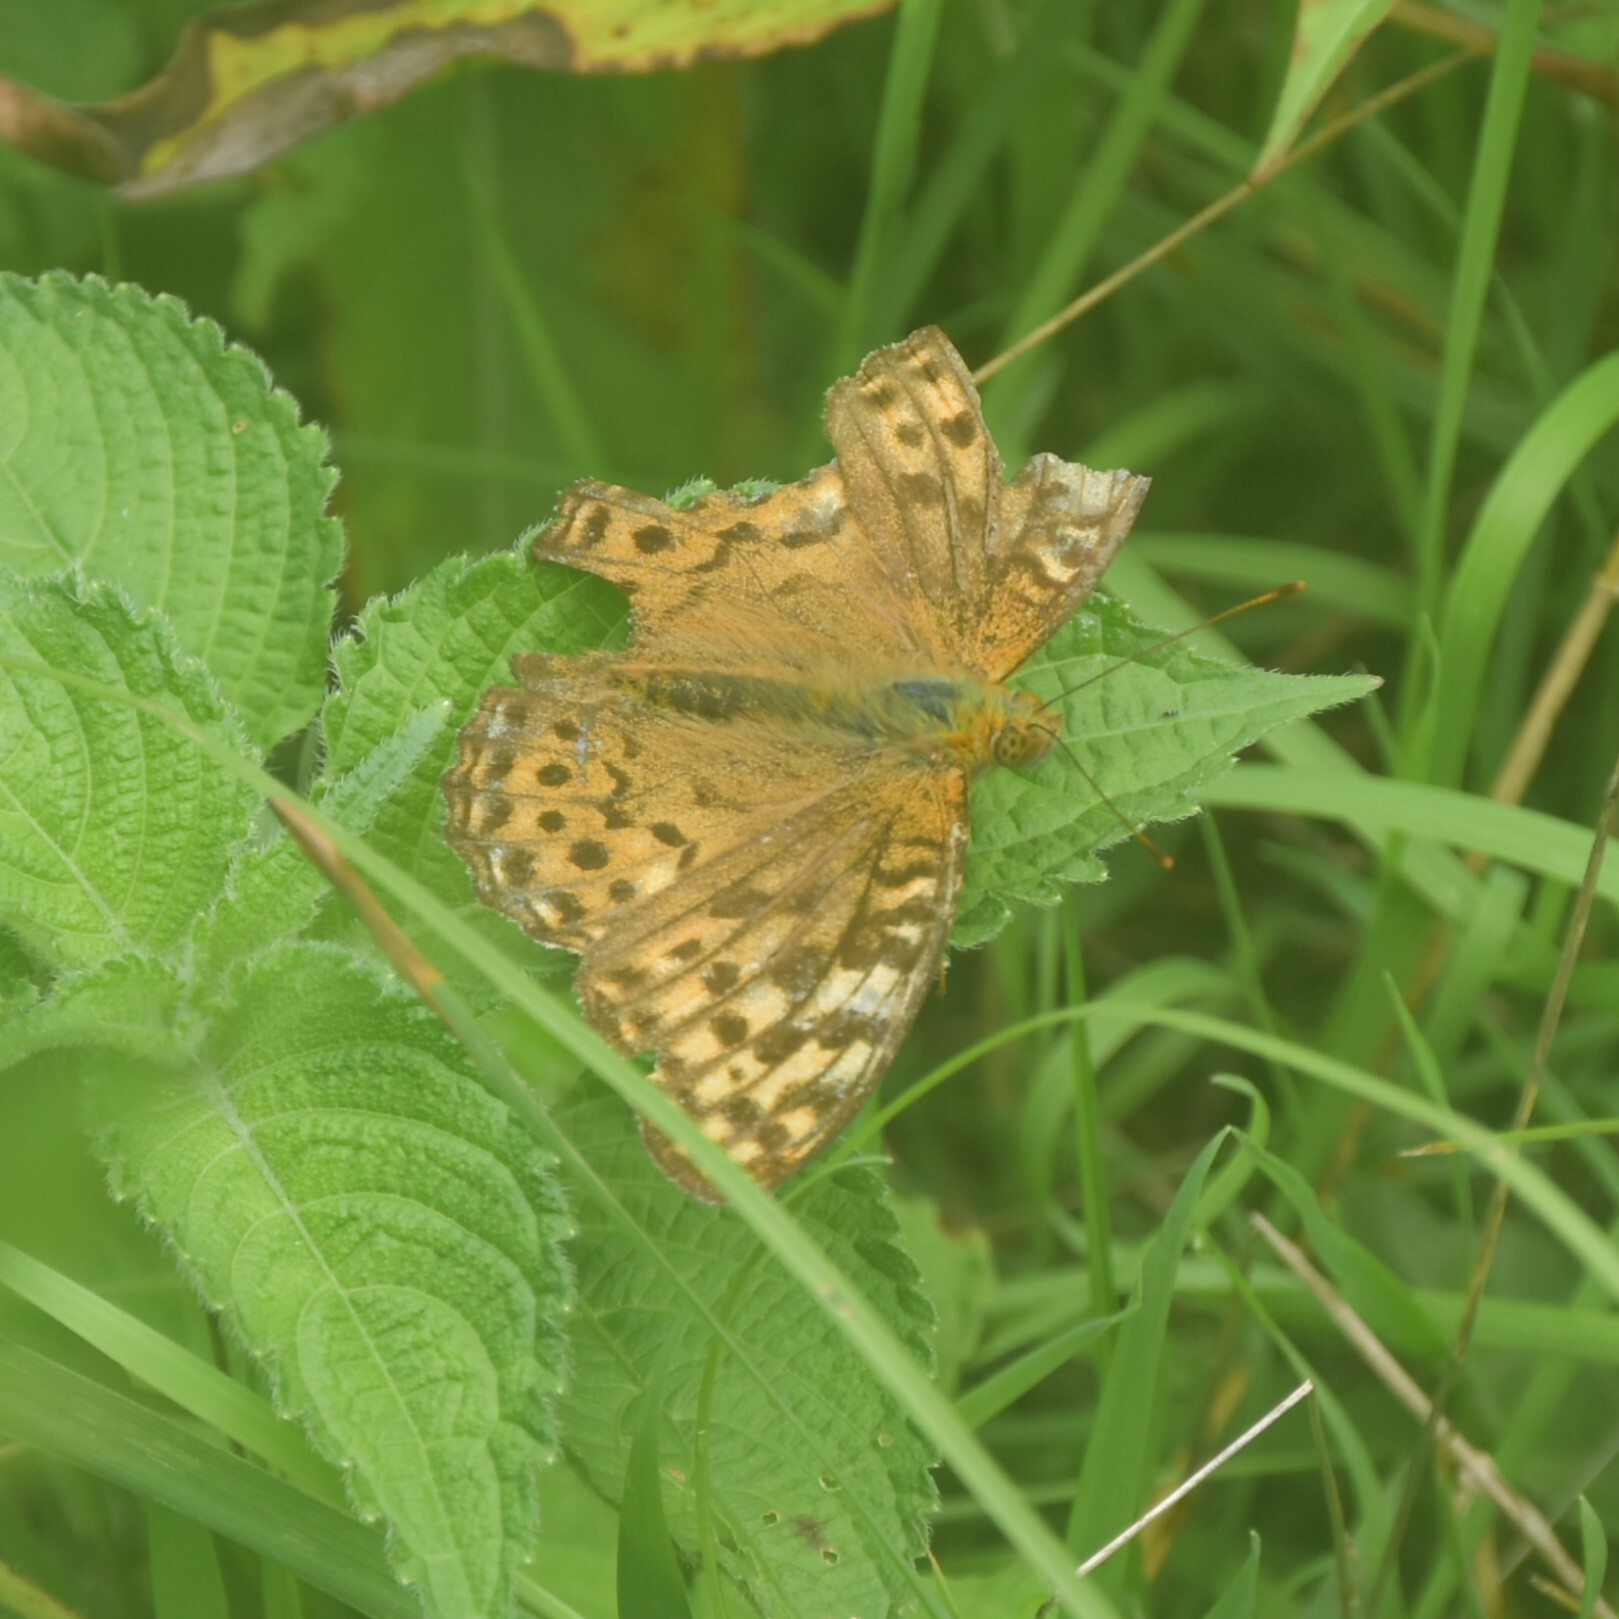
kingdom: Animalia
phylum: Arthropoda
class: Insecta
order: Lepidoptera
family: Nymphalidae
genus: Fabriciana
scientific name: Fabriciana kamala
